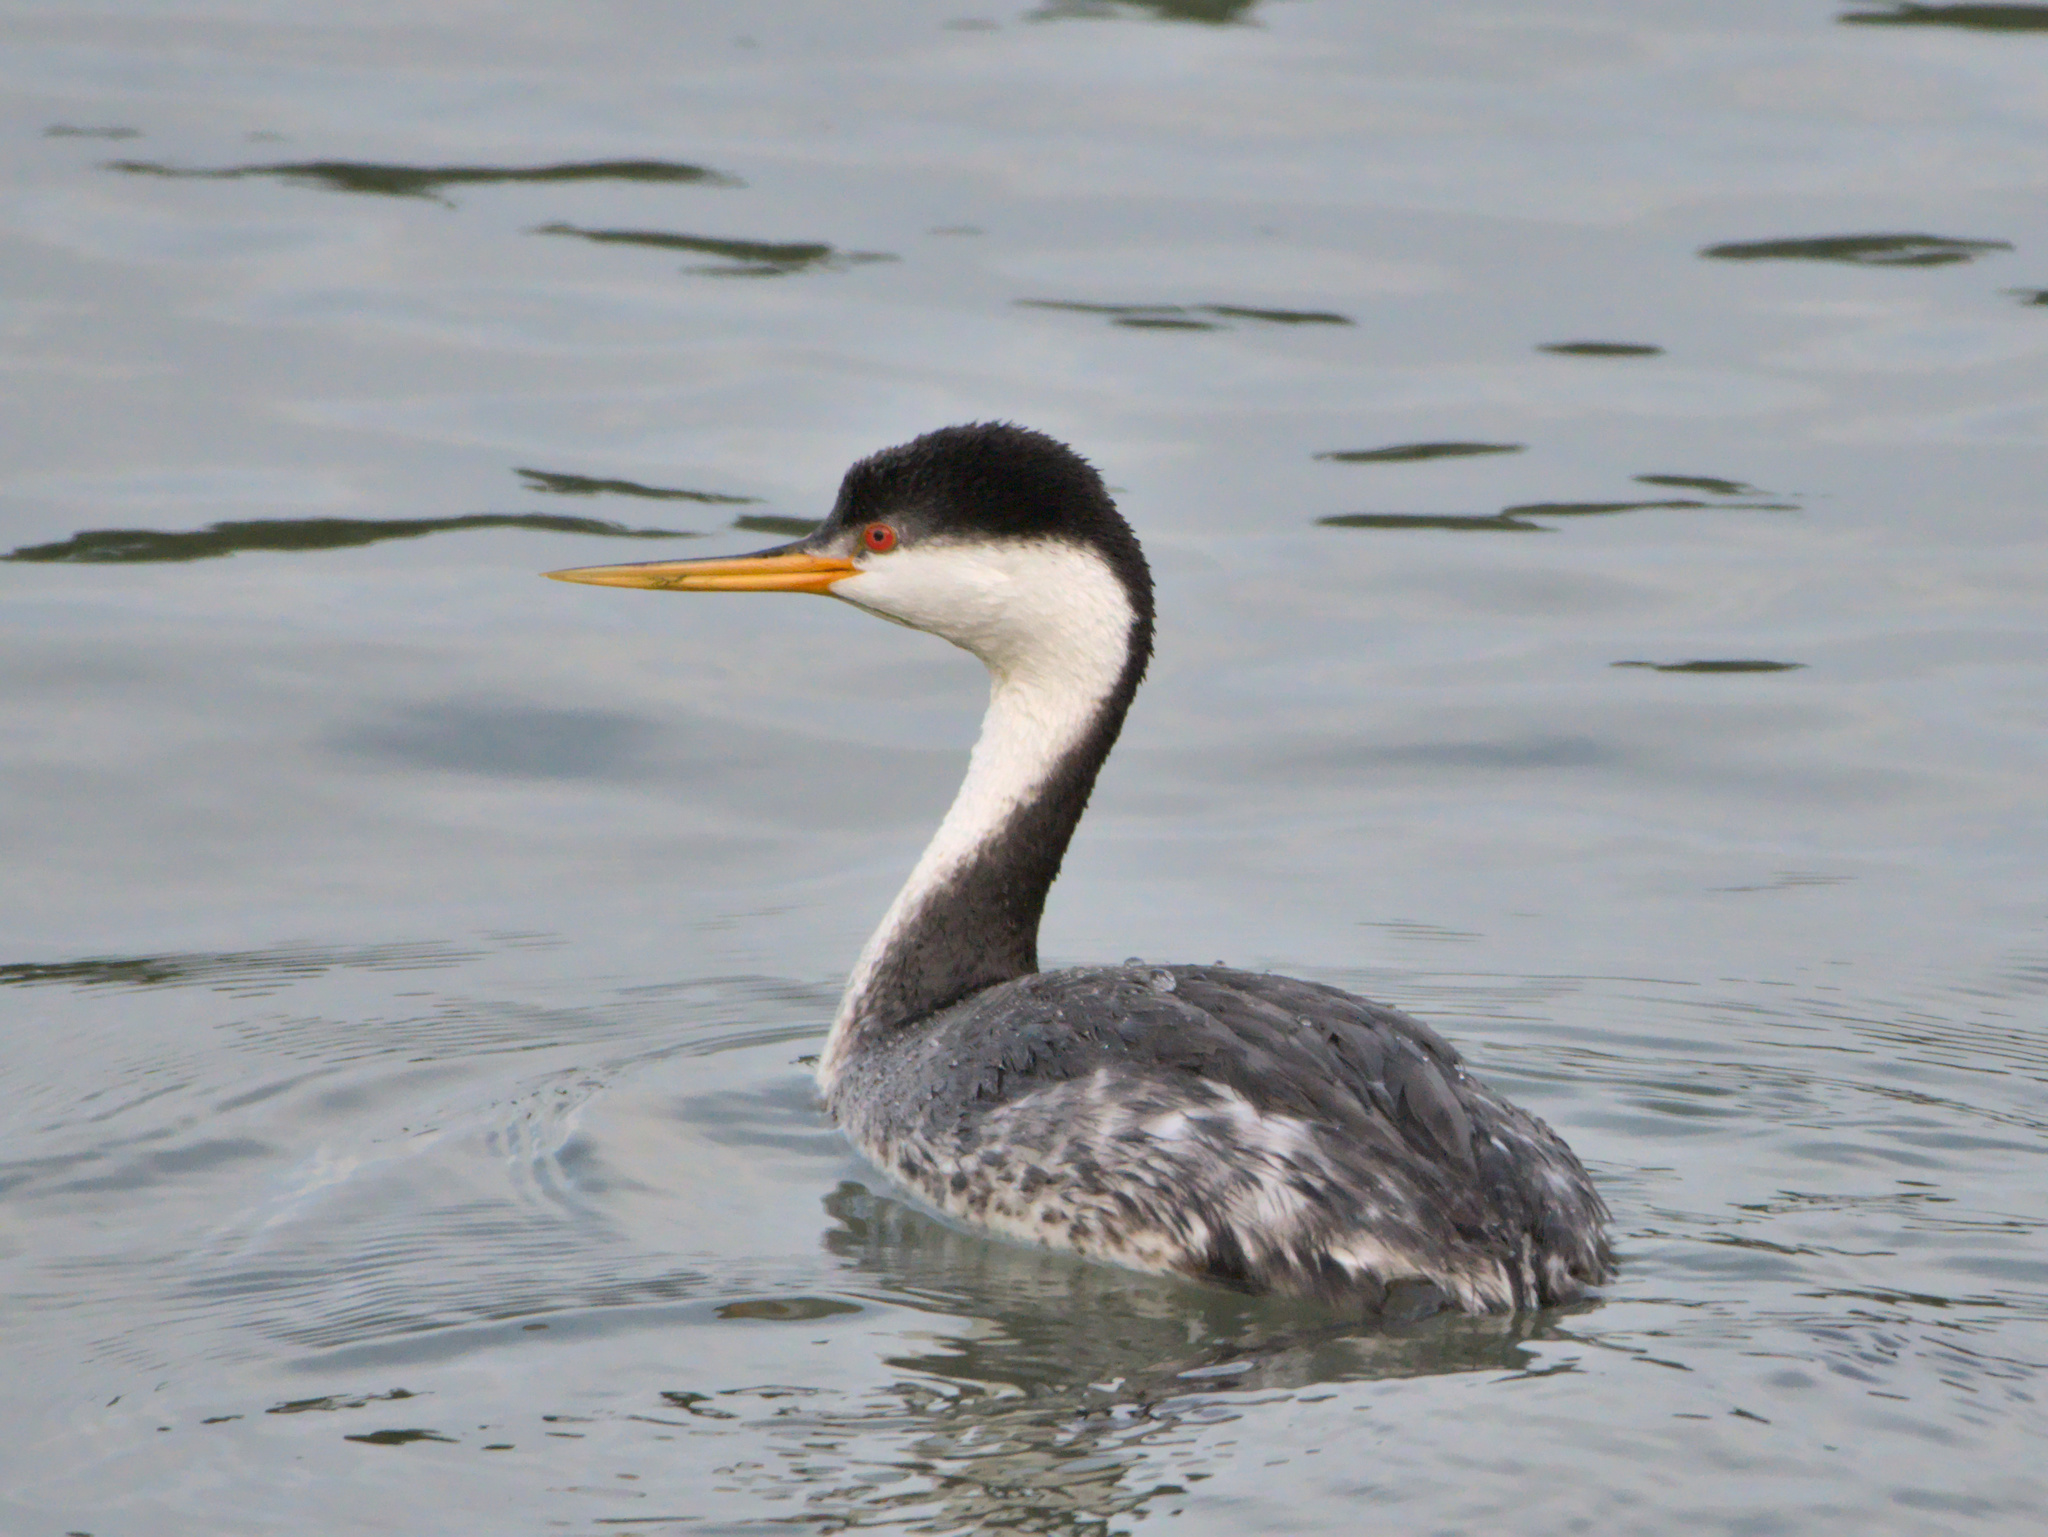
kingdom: Animalia
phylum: Chordata
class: Aves
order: Podicipediformes
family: Podicipedidae
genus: Aechmophorus
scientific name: Aechmophorus occidentalis
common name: Western grebe
